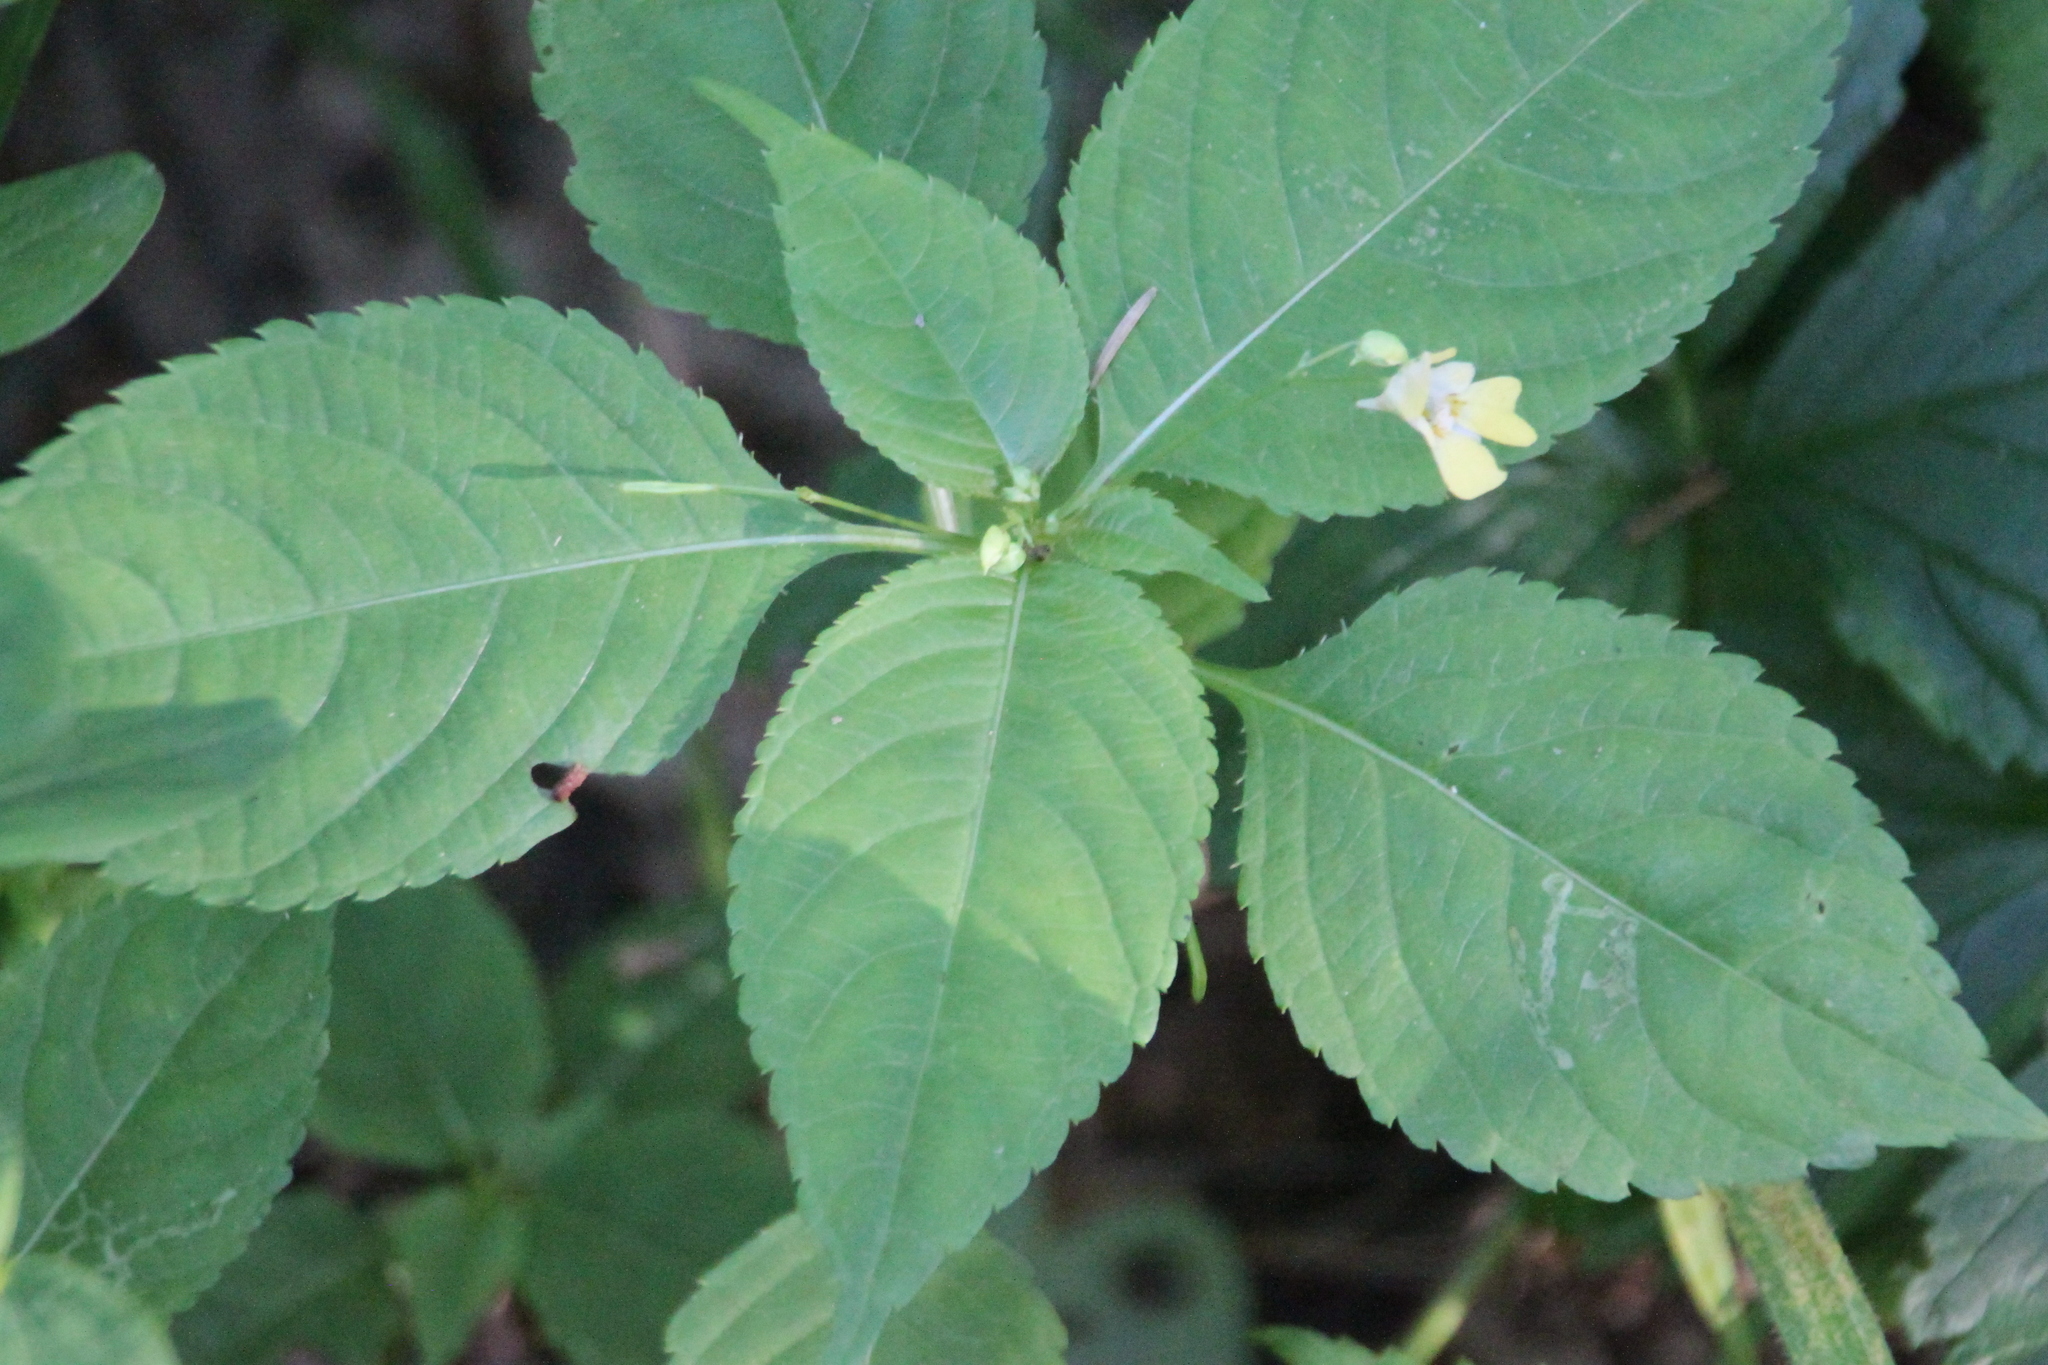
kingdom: Plantae
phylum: Tracheophyta
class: Magnoliopsida
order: Ericales
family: Balsaminaceae
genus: Impatiens
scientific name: Impatiens parviflora
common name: Small balsam
